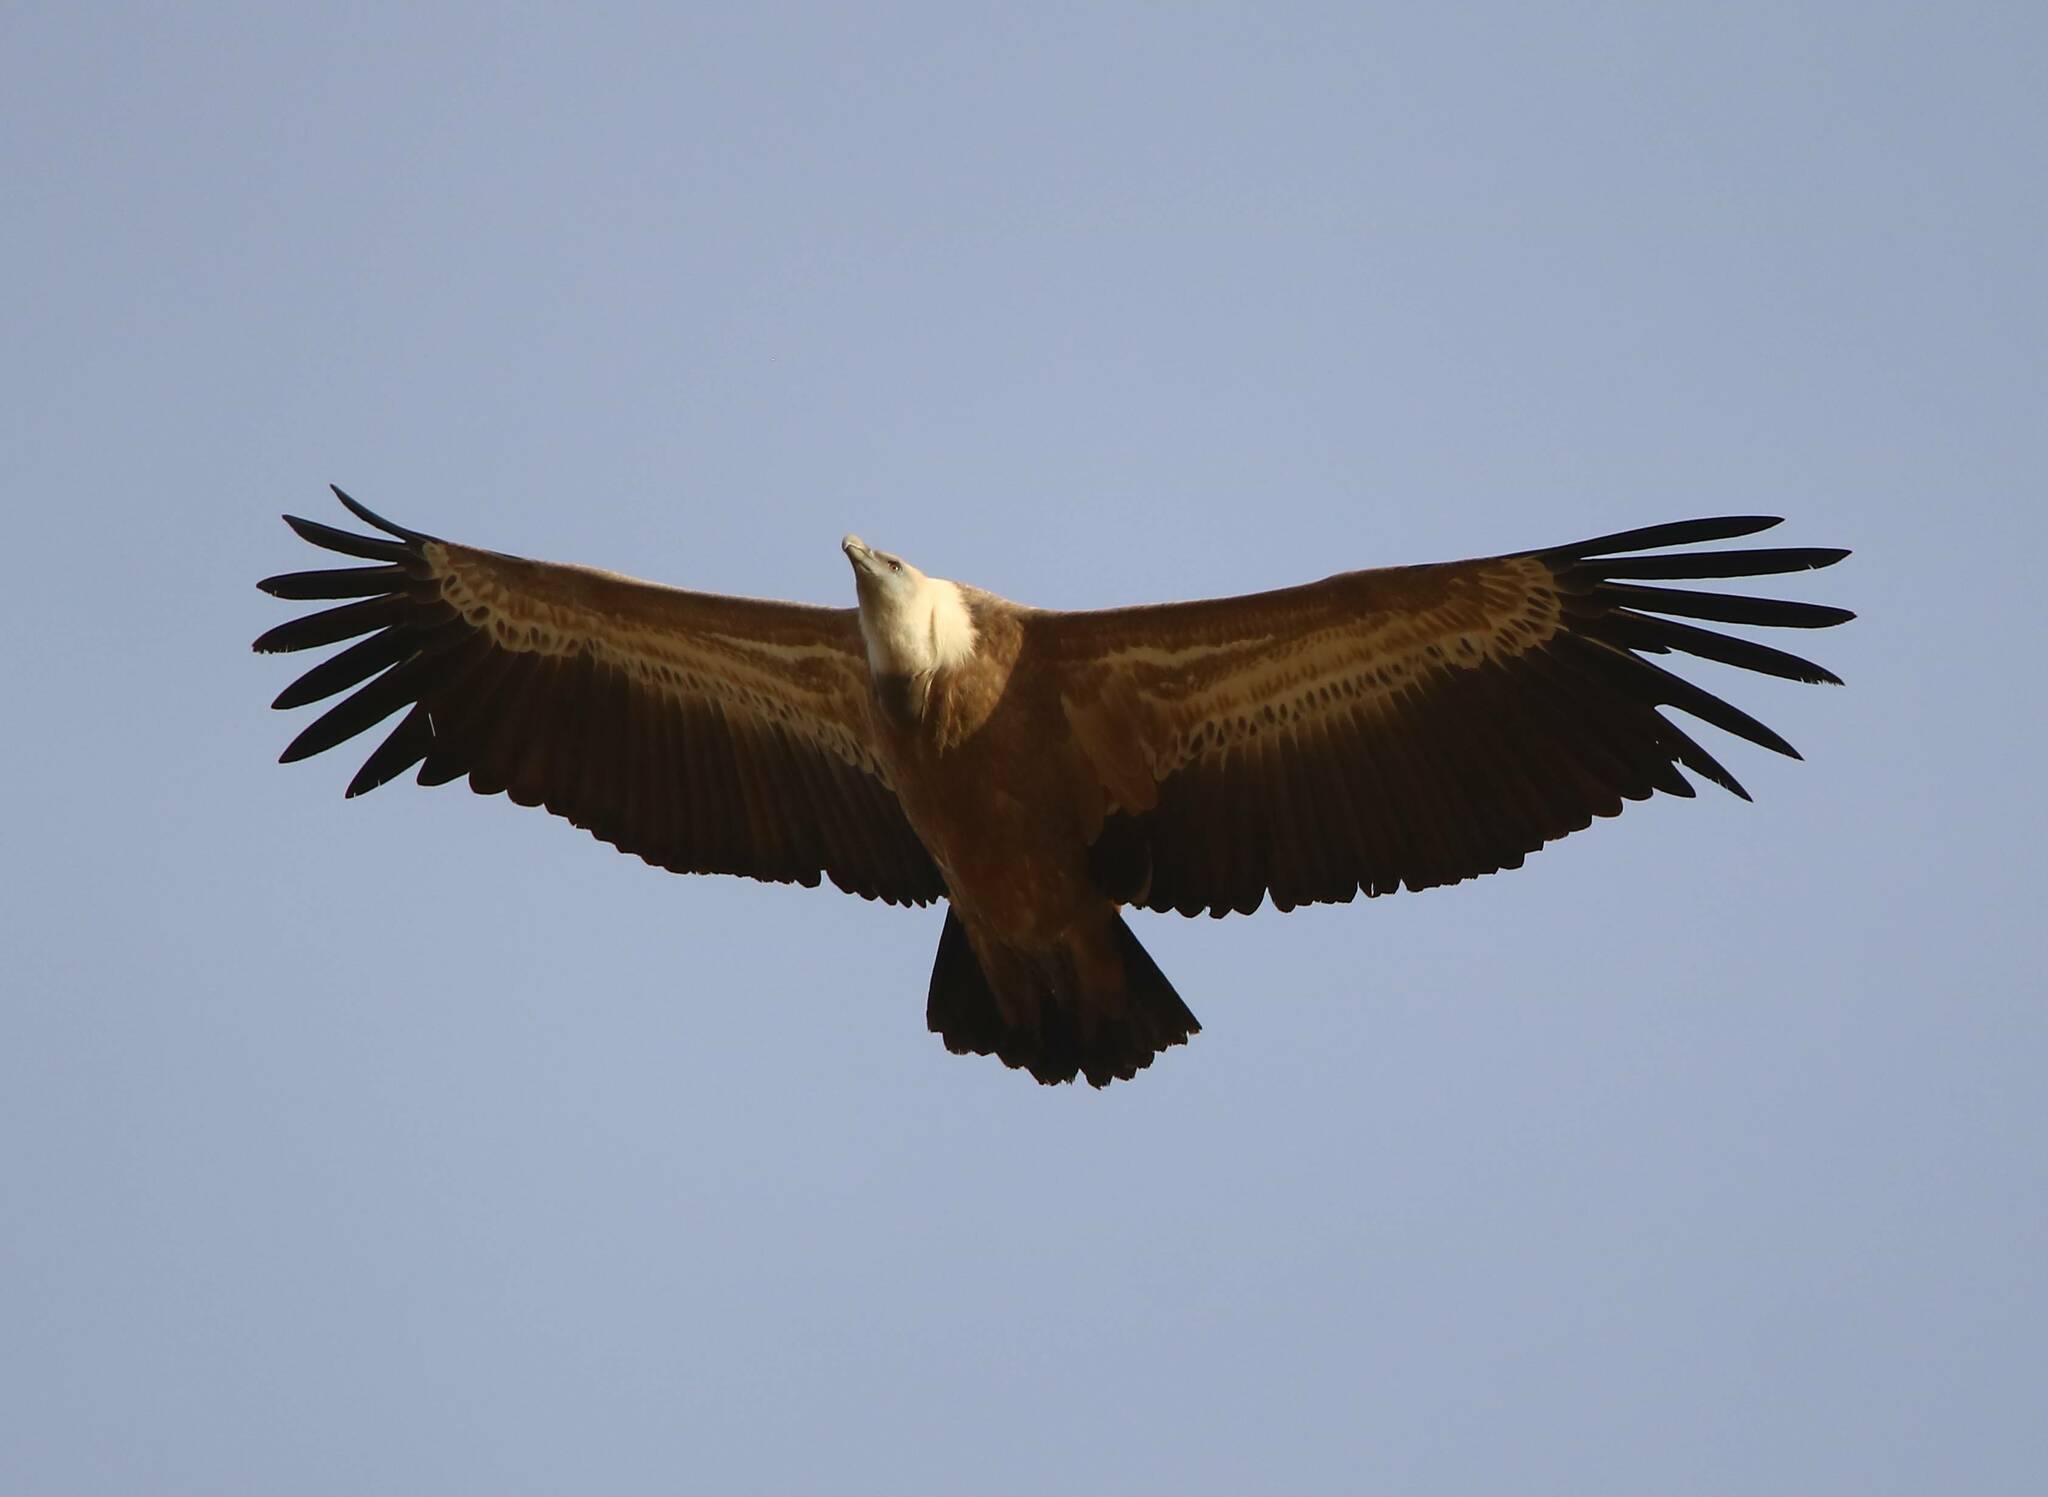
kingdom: Animalia
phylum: Chordata
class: Aves
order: Accipitriformes
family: Accipitridae
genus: Gyps
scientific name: Gyps fulvus
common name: Griffon vulture
